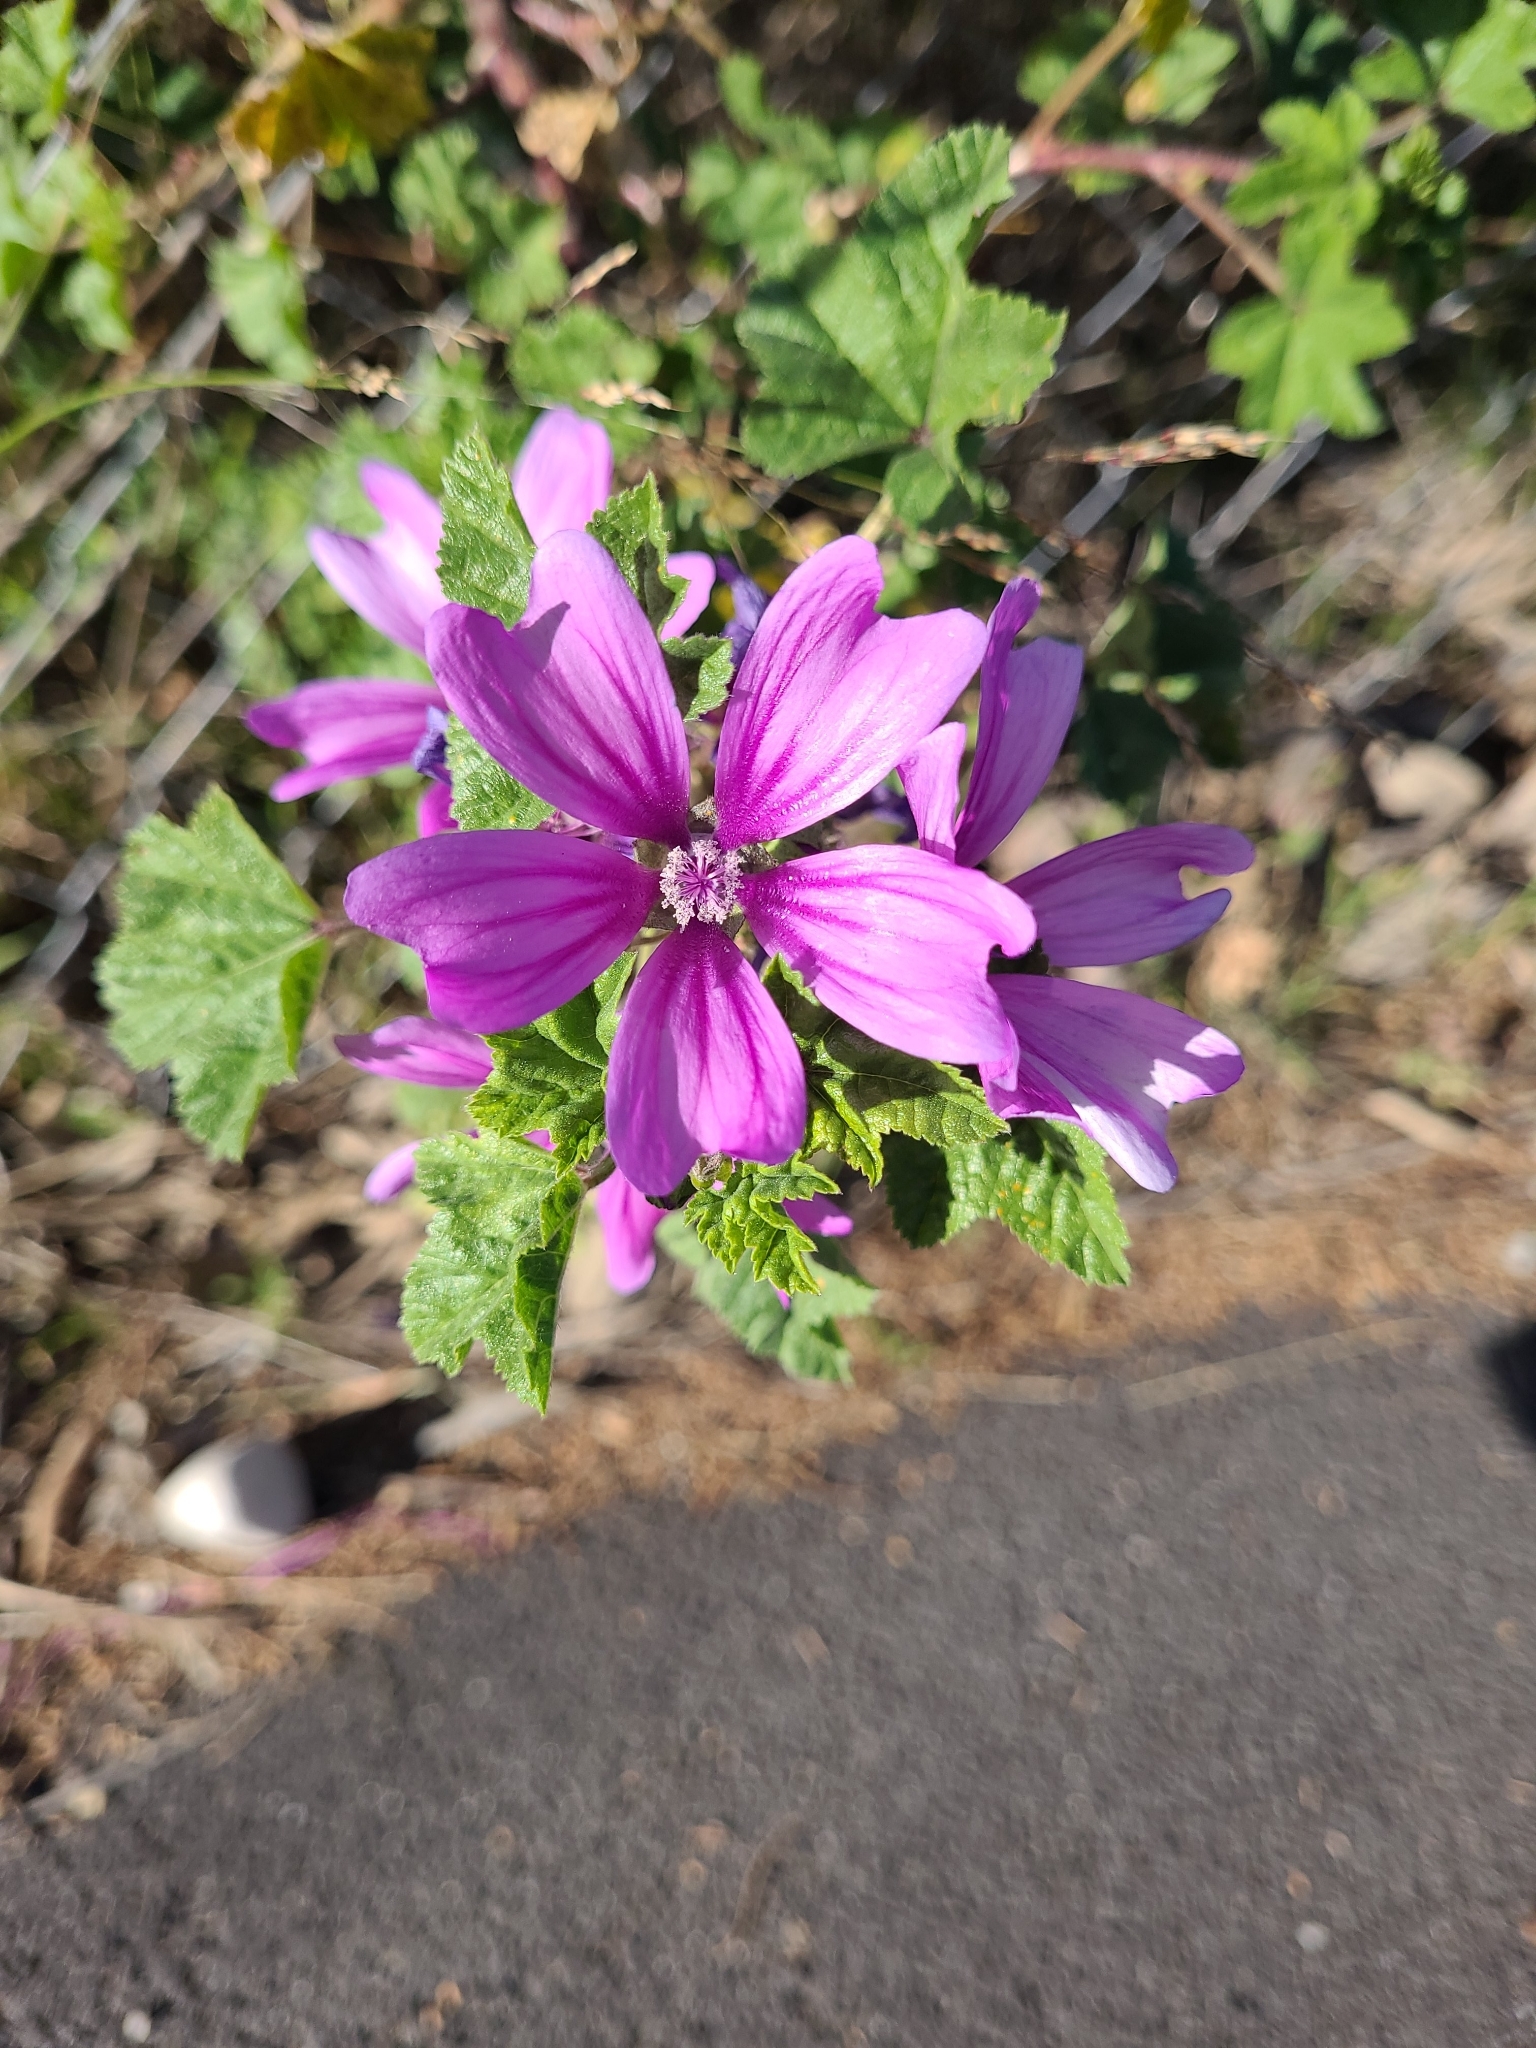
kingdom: Plantae
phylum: Tracheophyta
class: Magnoliopsida
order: Malvales
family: Malvaceae
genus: Malva
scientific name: Malva sylvestris
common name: Common mallow
